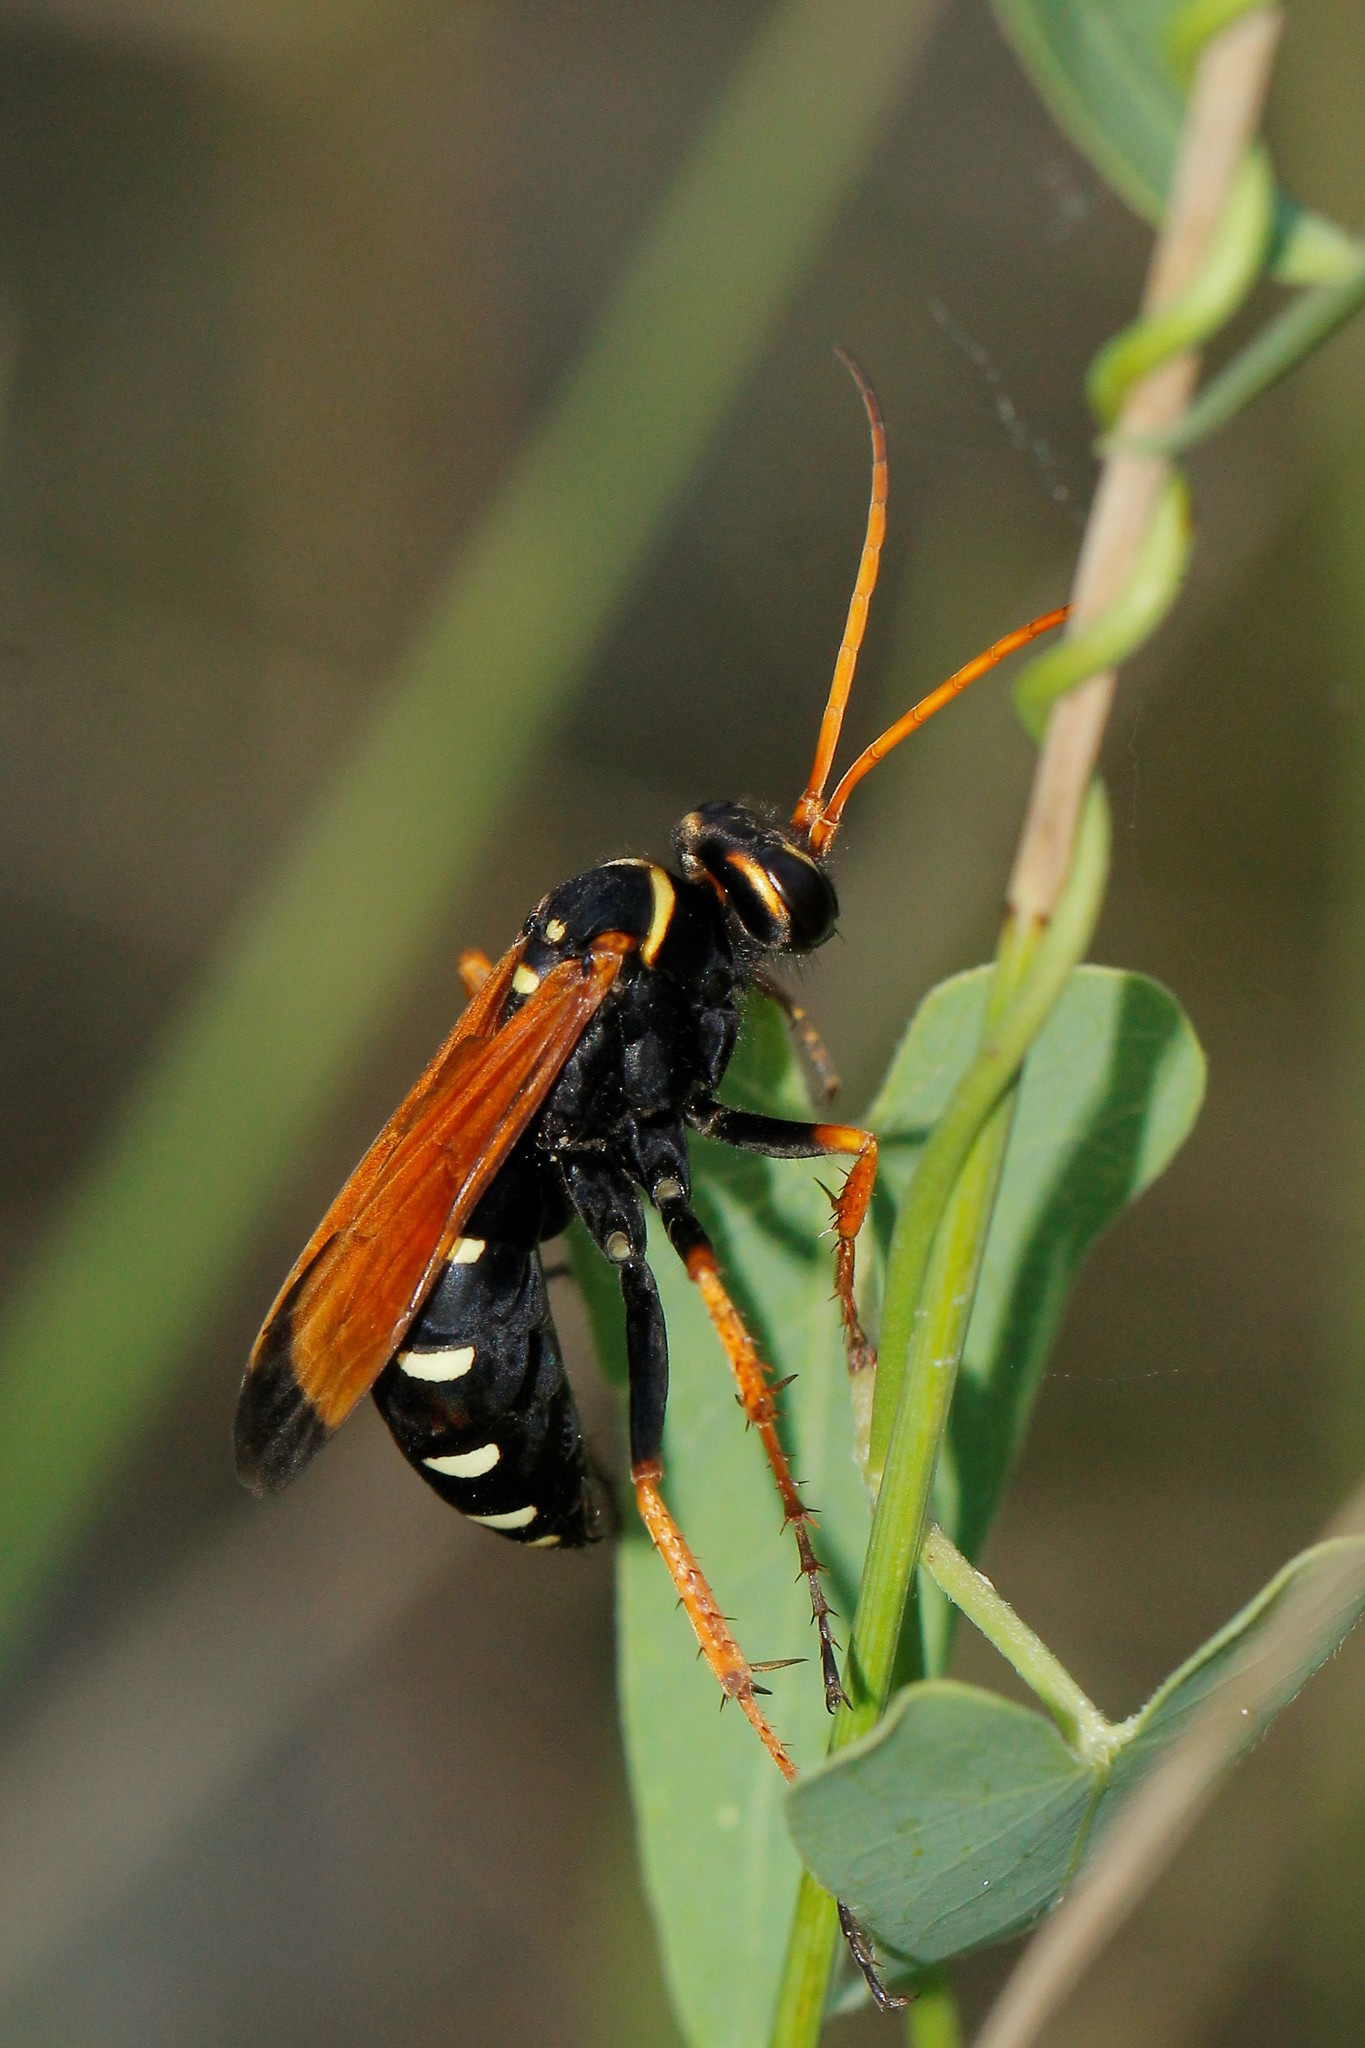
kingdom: Animalia
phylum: Arthropoda
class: Insecta
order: Hymenoptera
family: Pompilidae
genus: Parabatozonus
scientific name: Parabatozonus lacerticida
